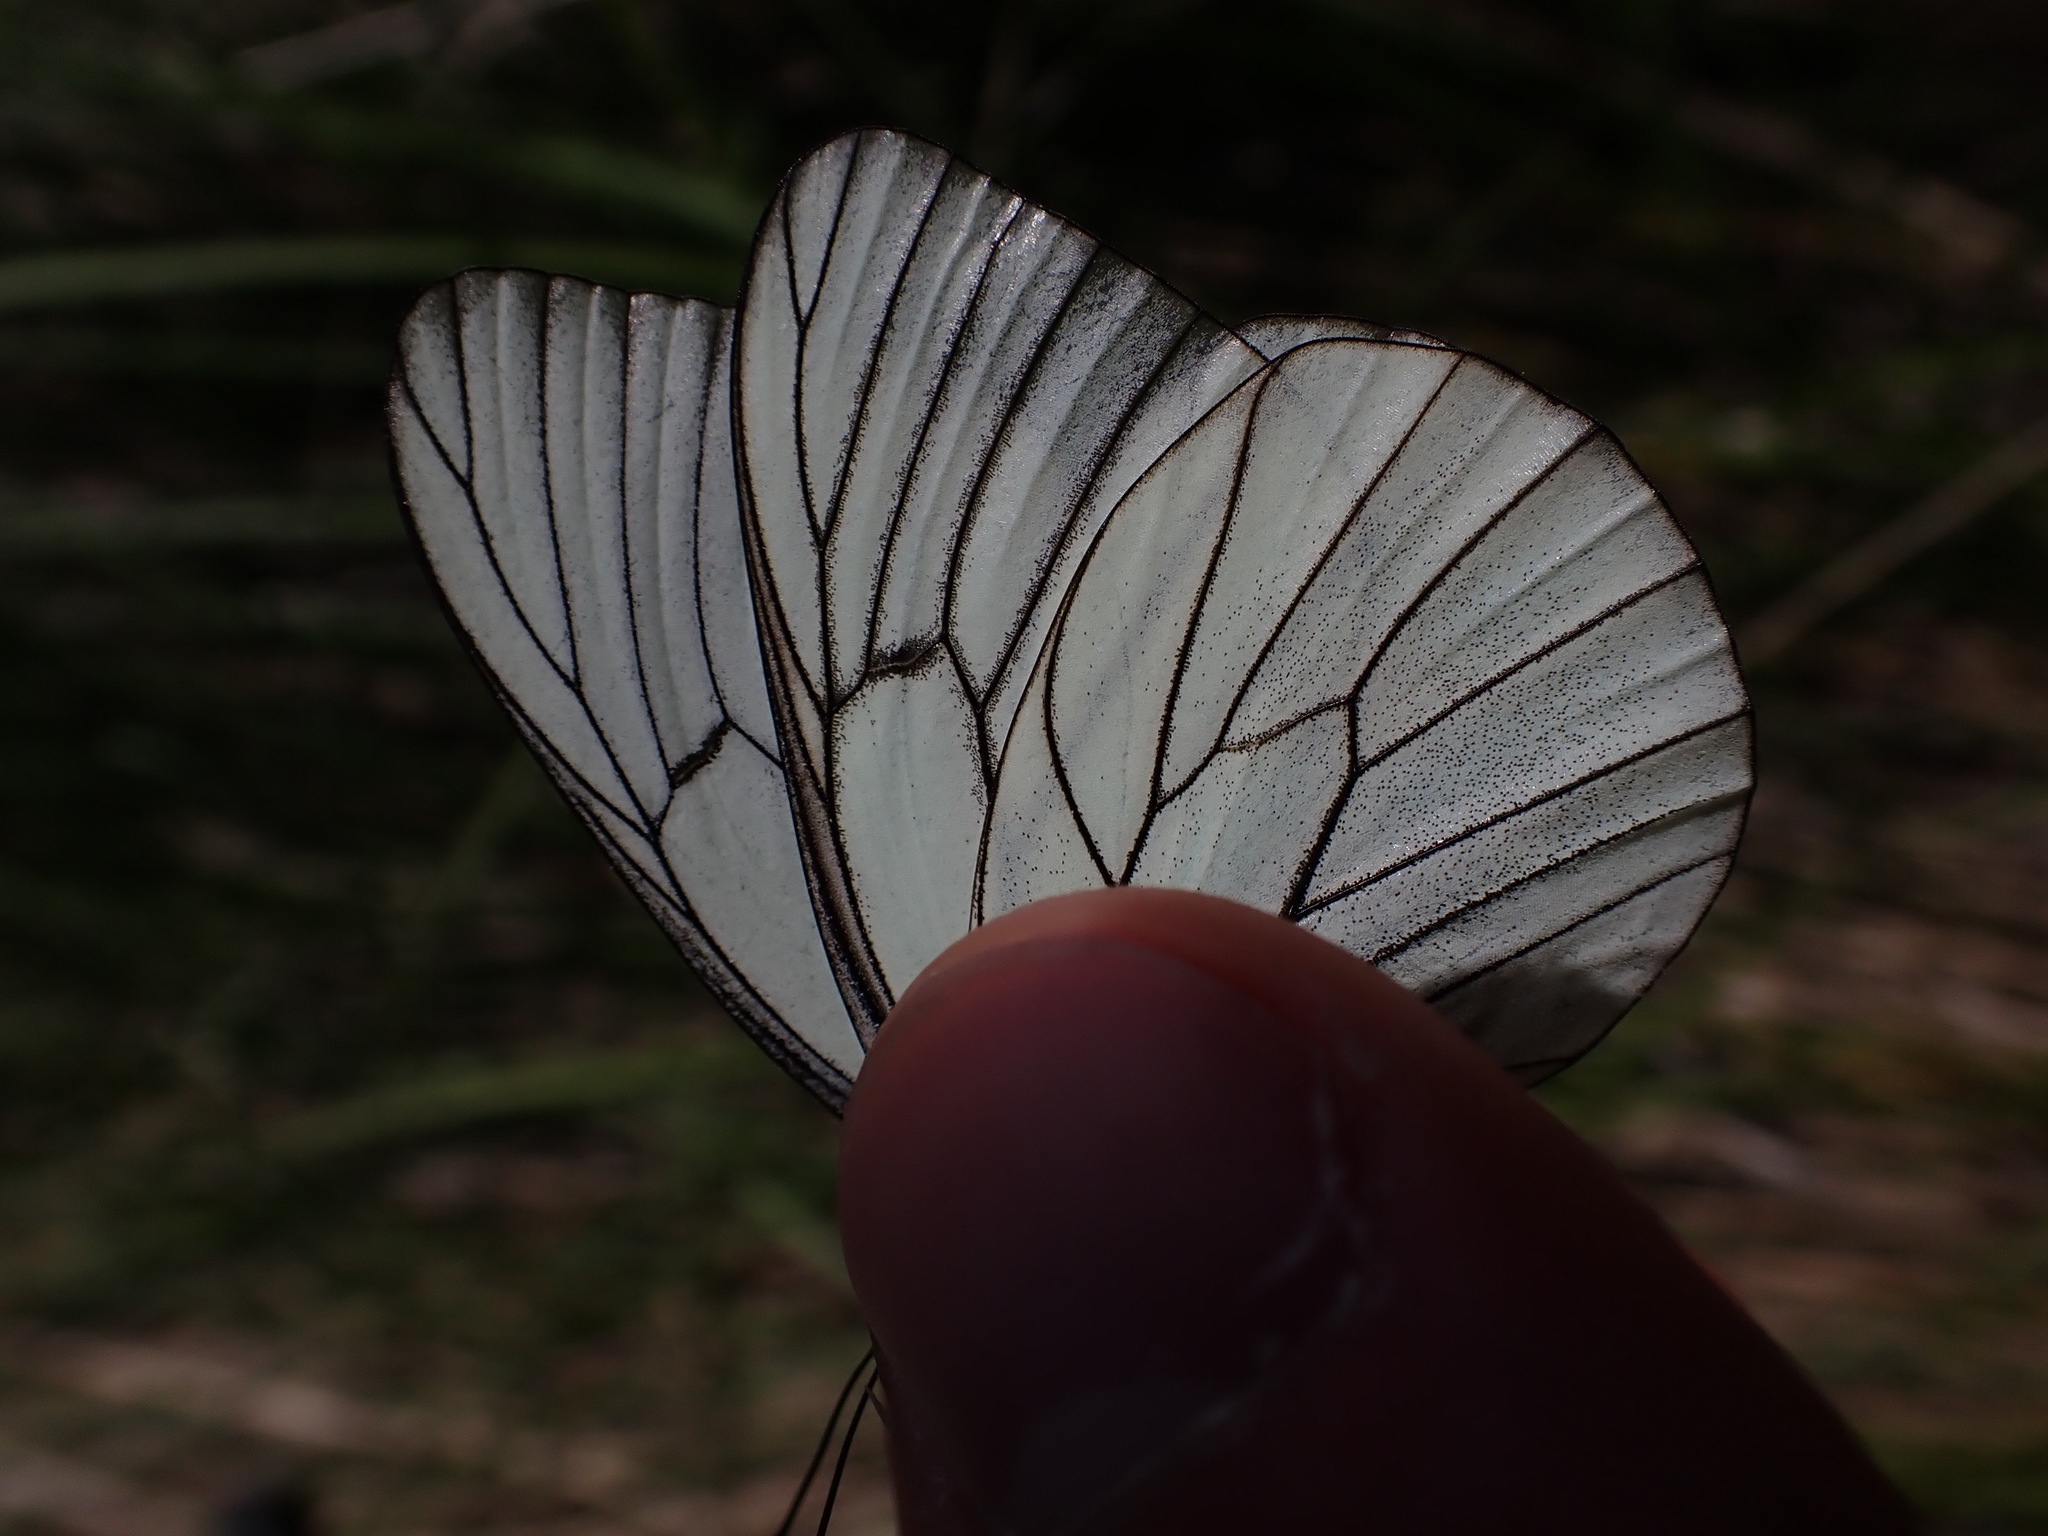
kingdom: Animalia
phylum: Arthropoda
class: Insecta
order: Lepidoptera
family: Pieridae
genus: Aporia
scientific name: Aporia crataegi
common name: Black-veined white
